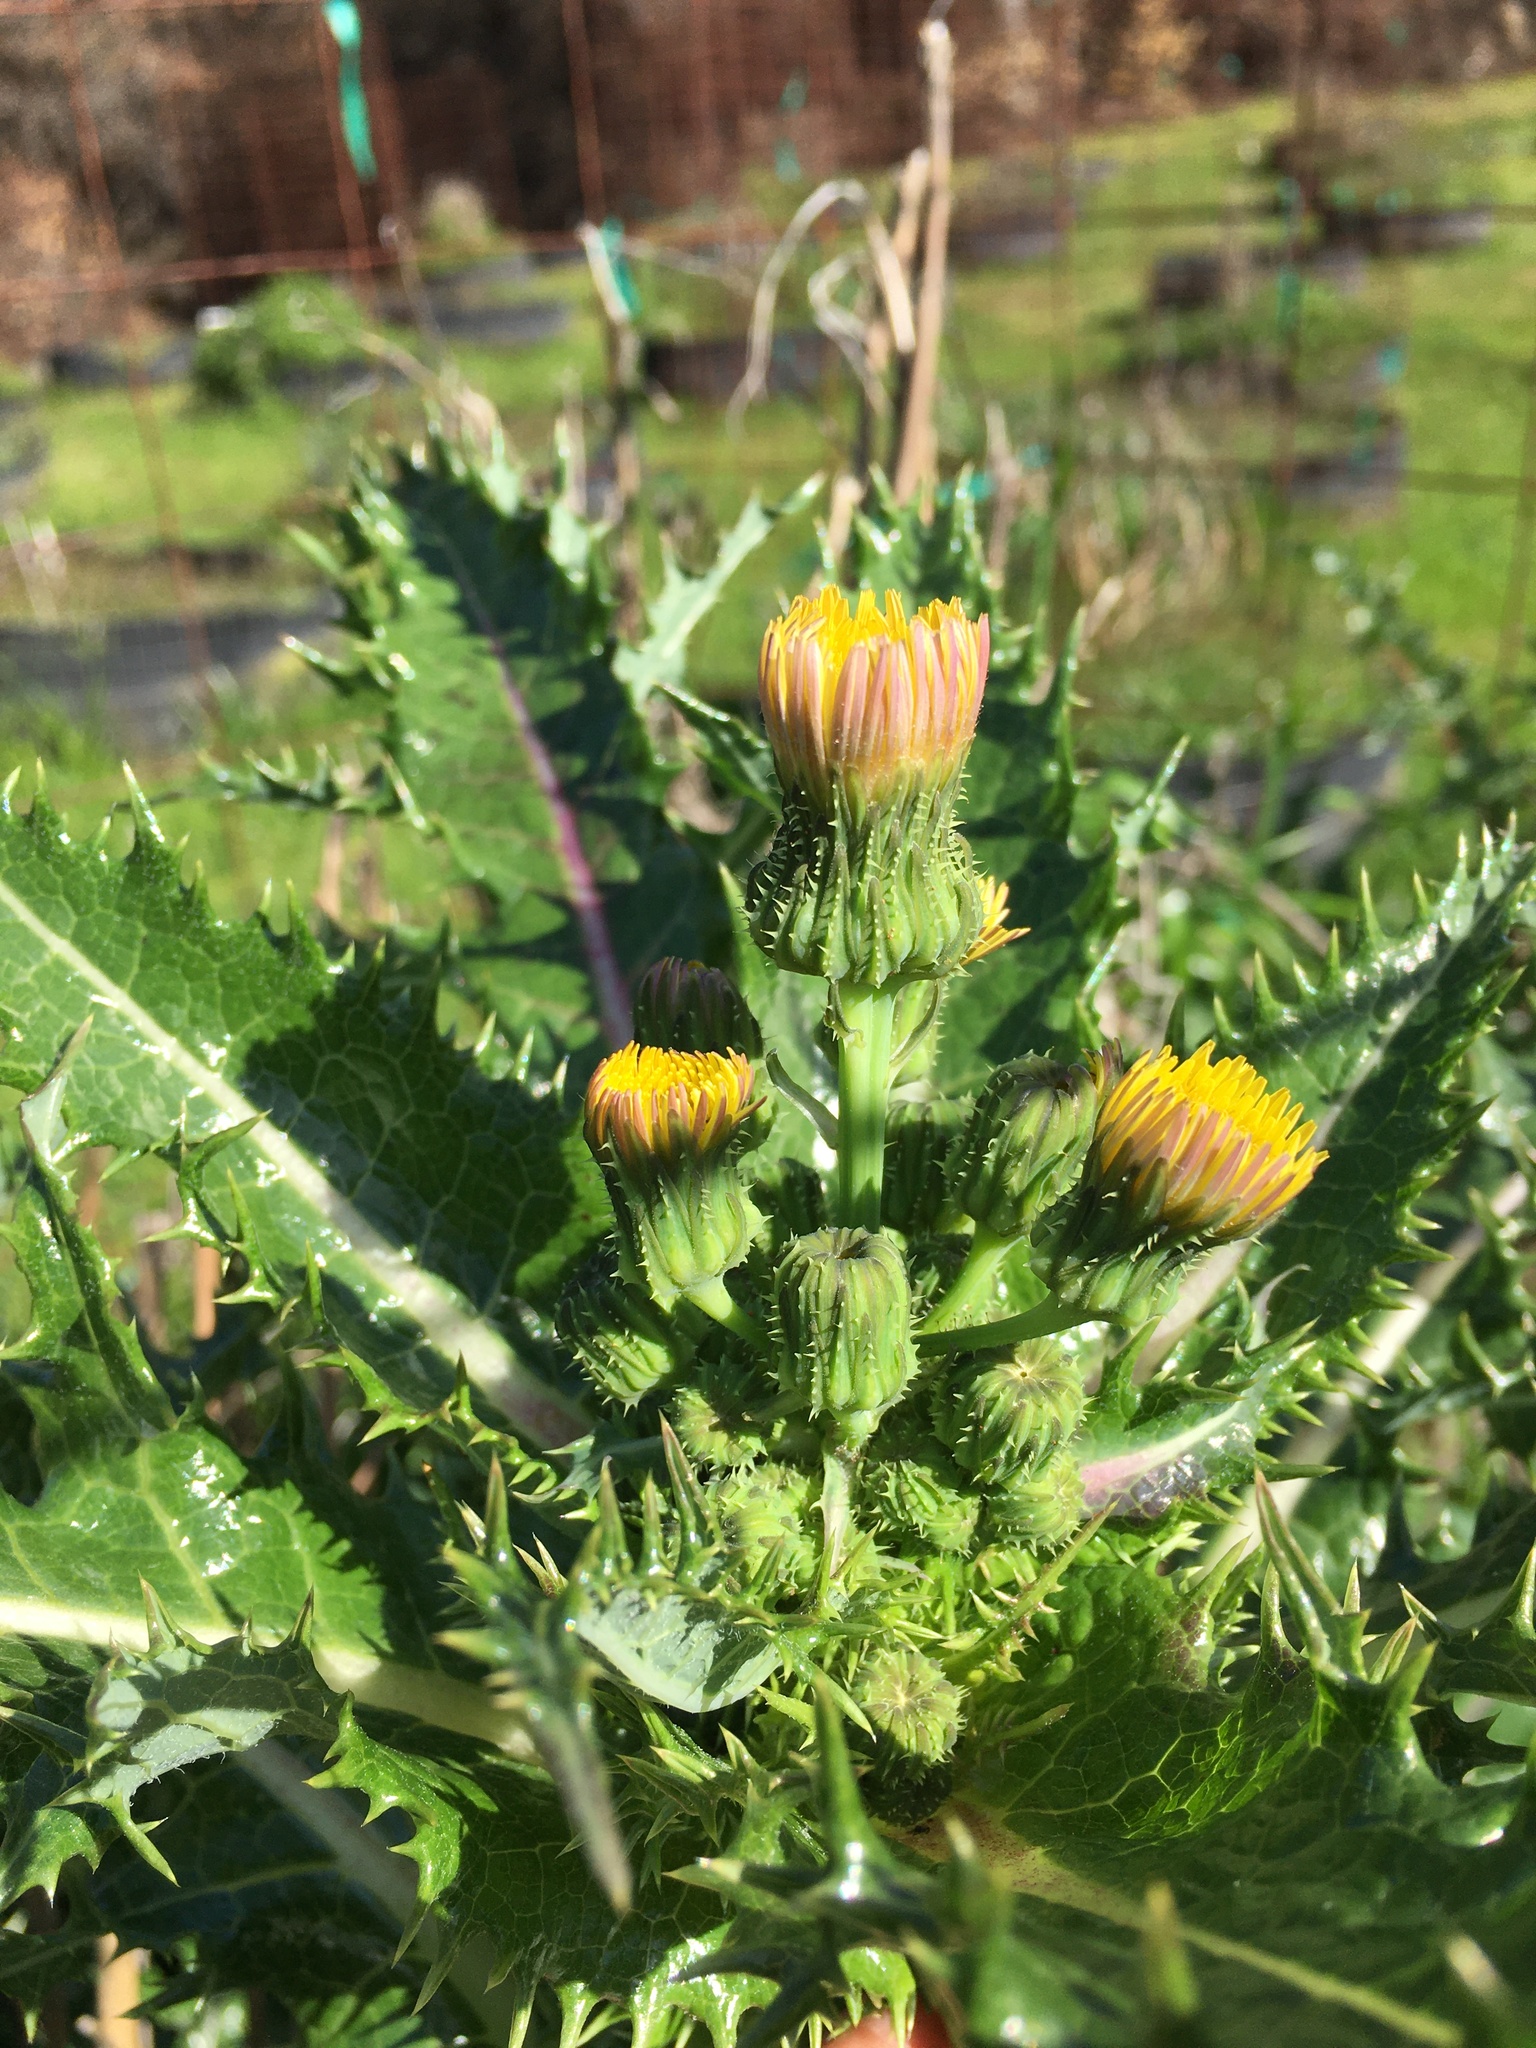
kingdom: Plantae
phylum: Tracheophyta
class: Magnoliopsida
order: Asterales
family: Asteraceae
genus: Sonchus
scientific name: Sonchus asper
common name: Prickly sow-thistle
